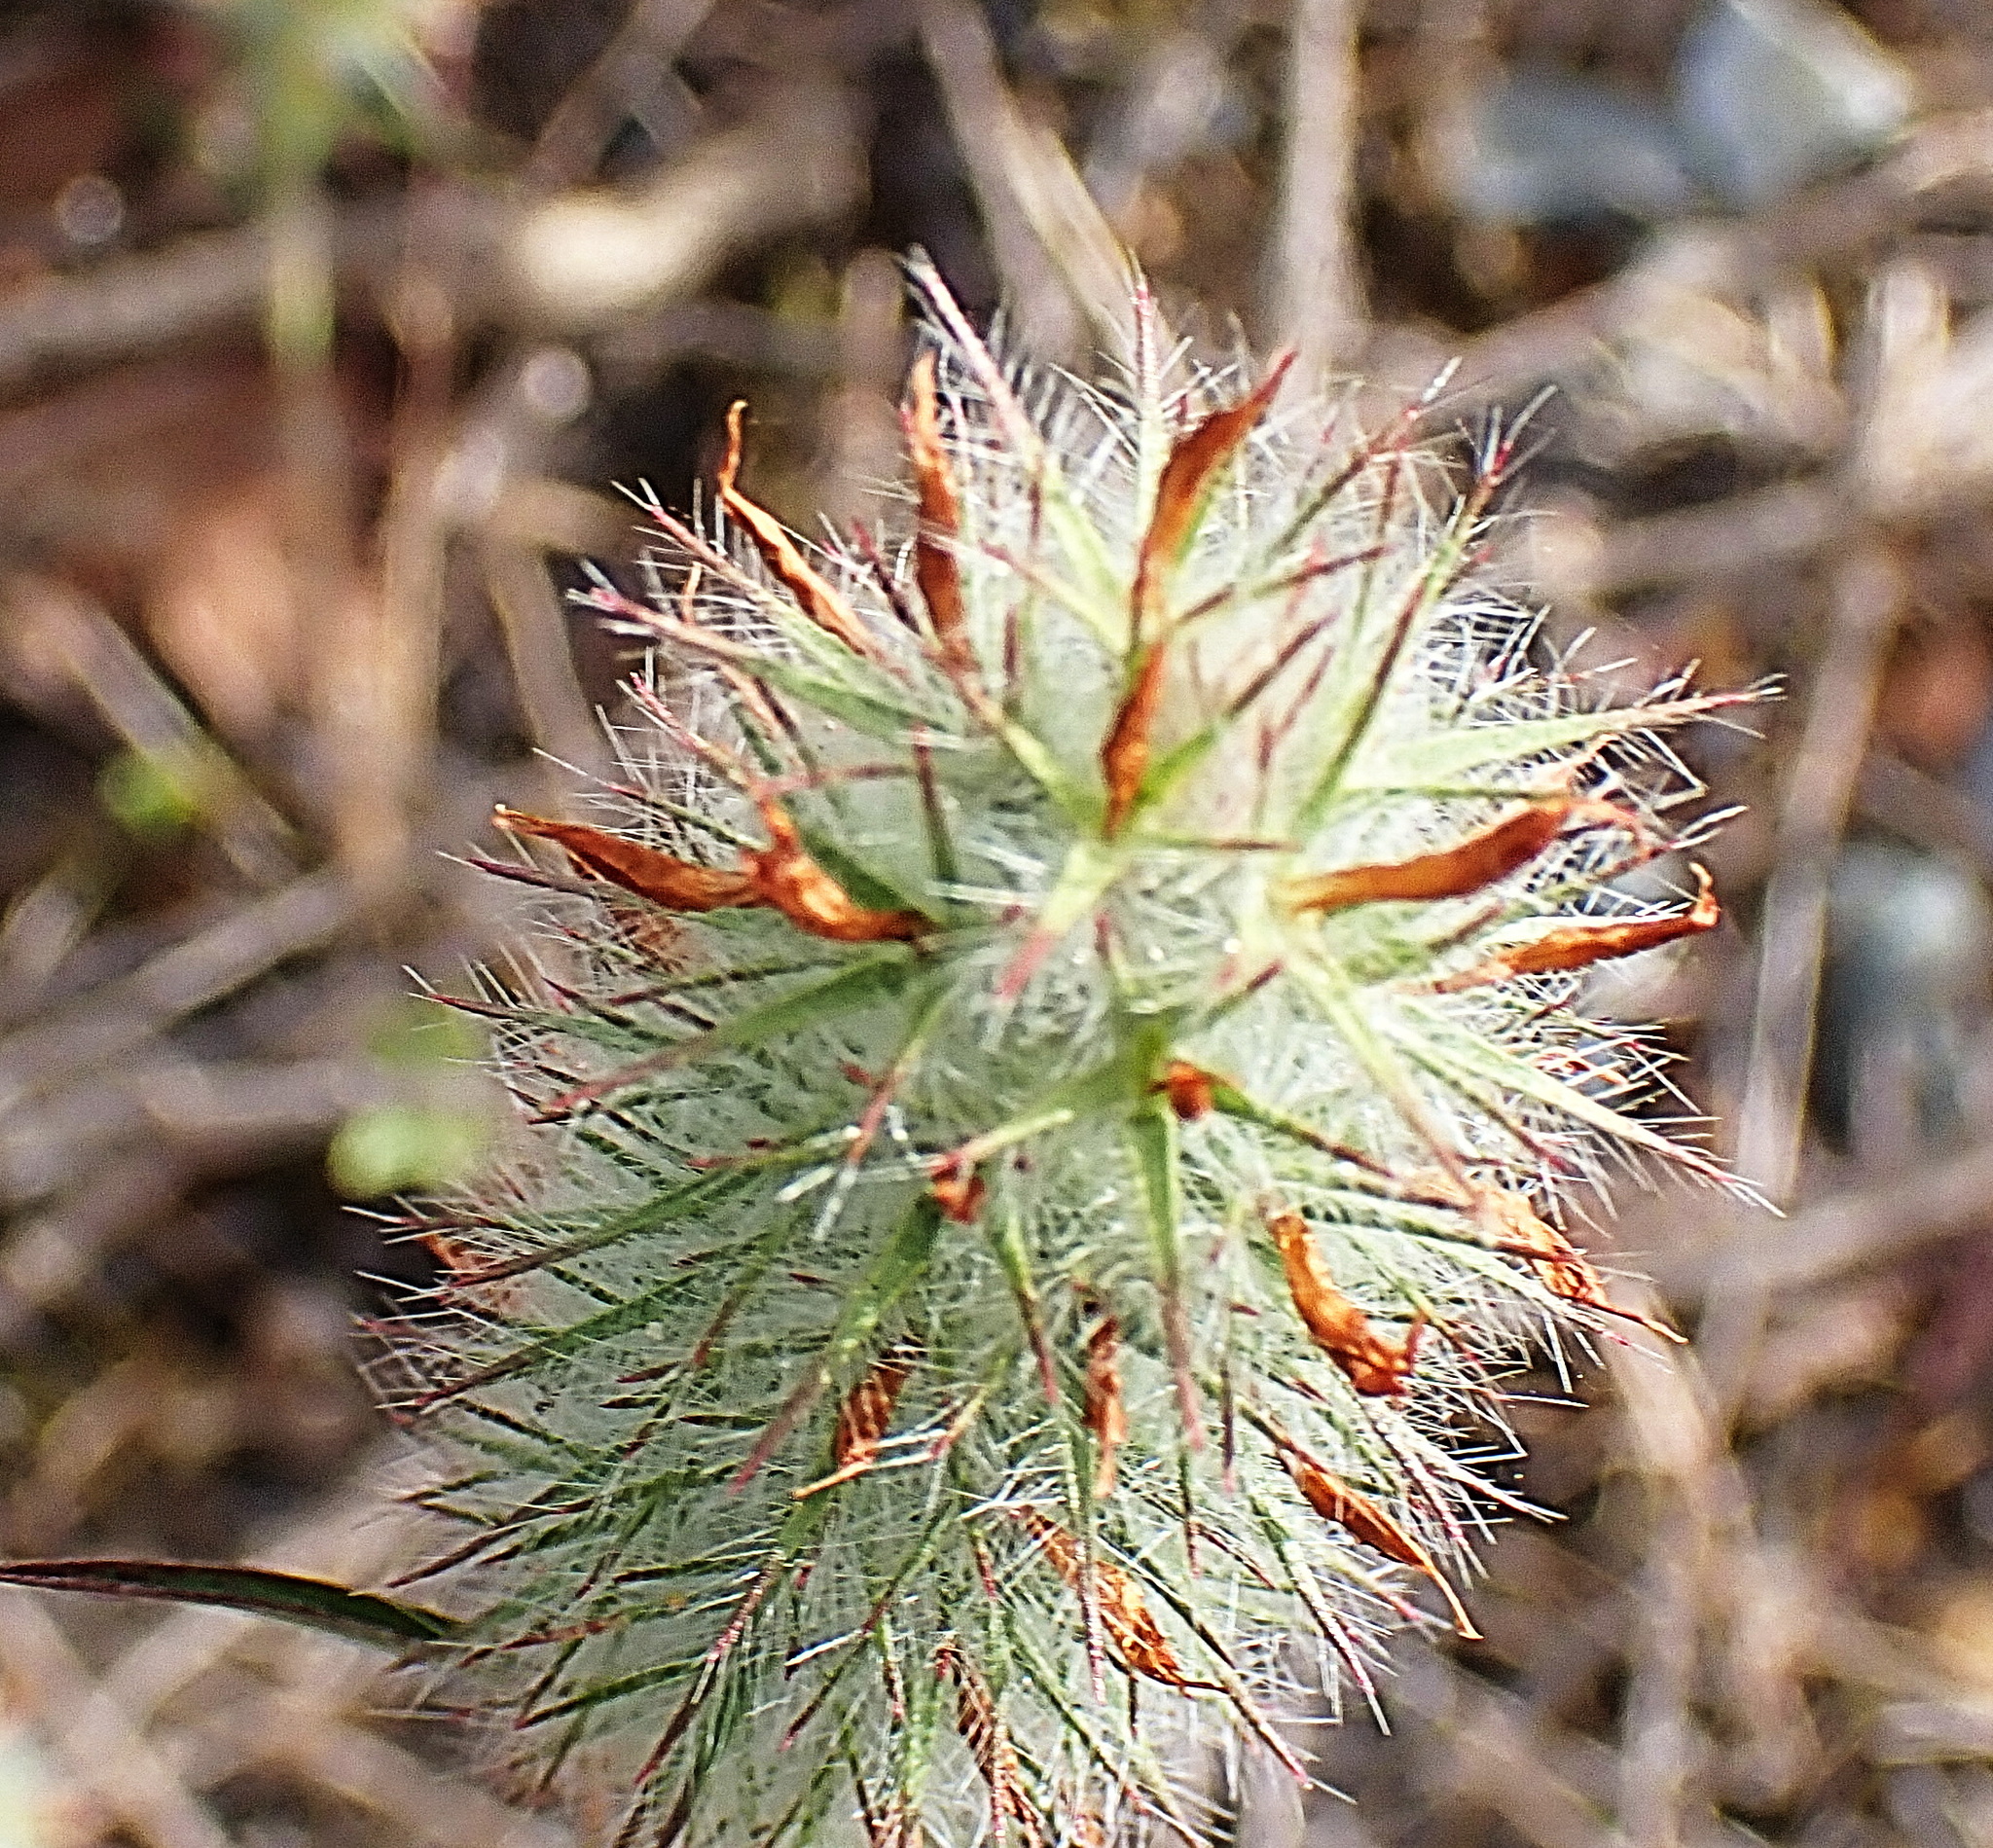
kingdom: Plantae
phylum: Tracheophyta
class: Magnoliopsida
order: Fabales
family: Fabaceae
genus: Trifolium
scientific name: Trifolium angustifolium
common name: Narrow clover
